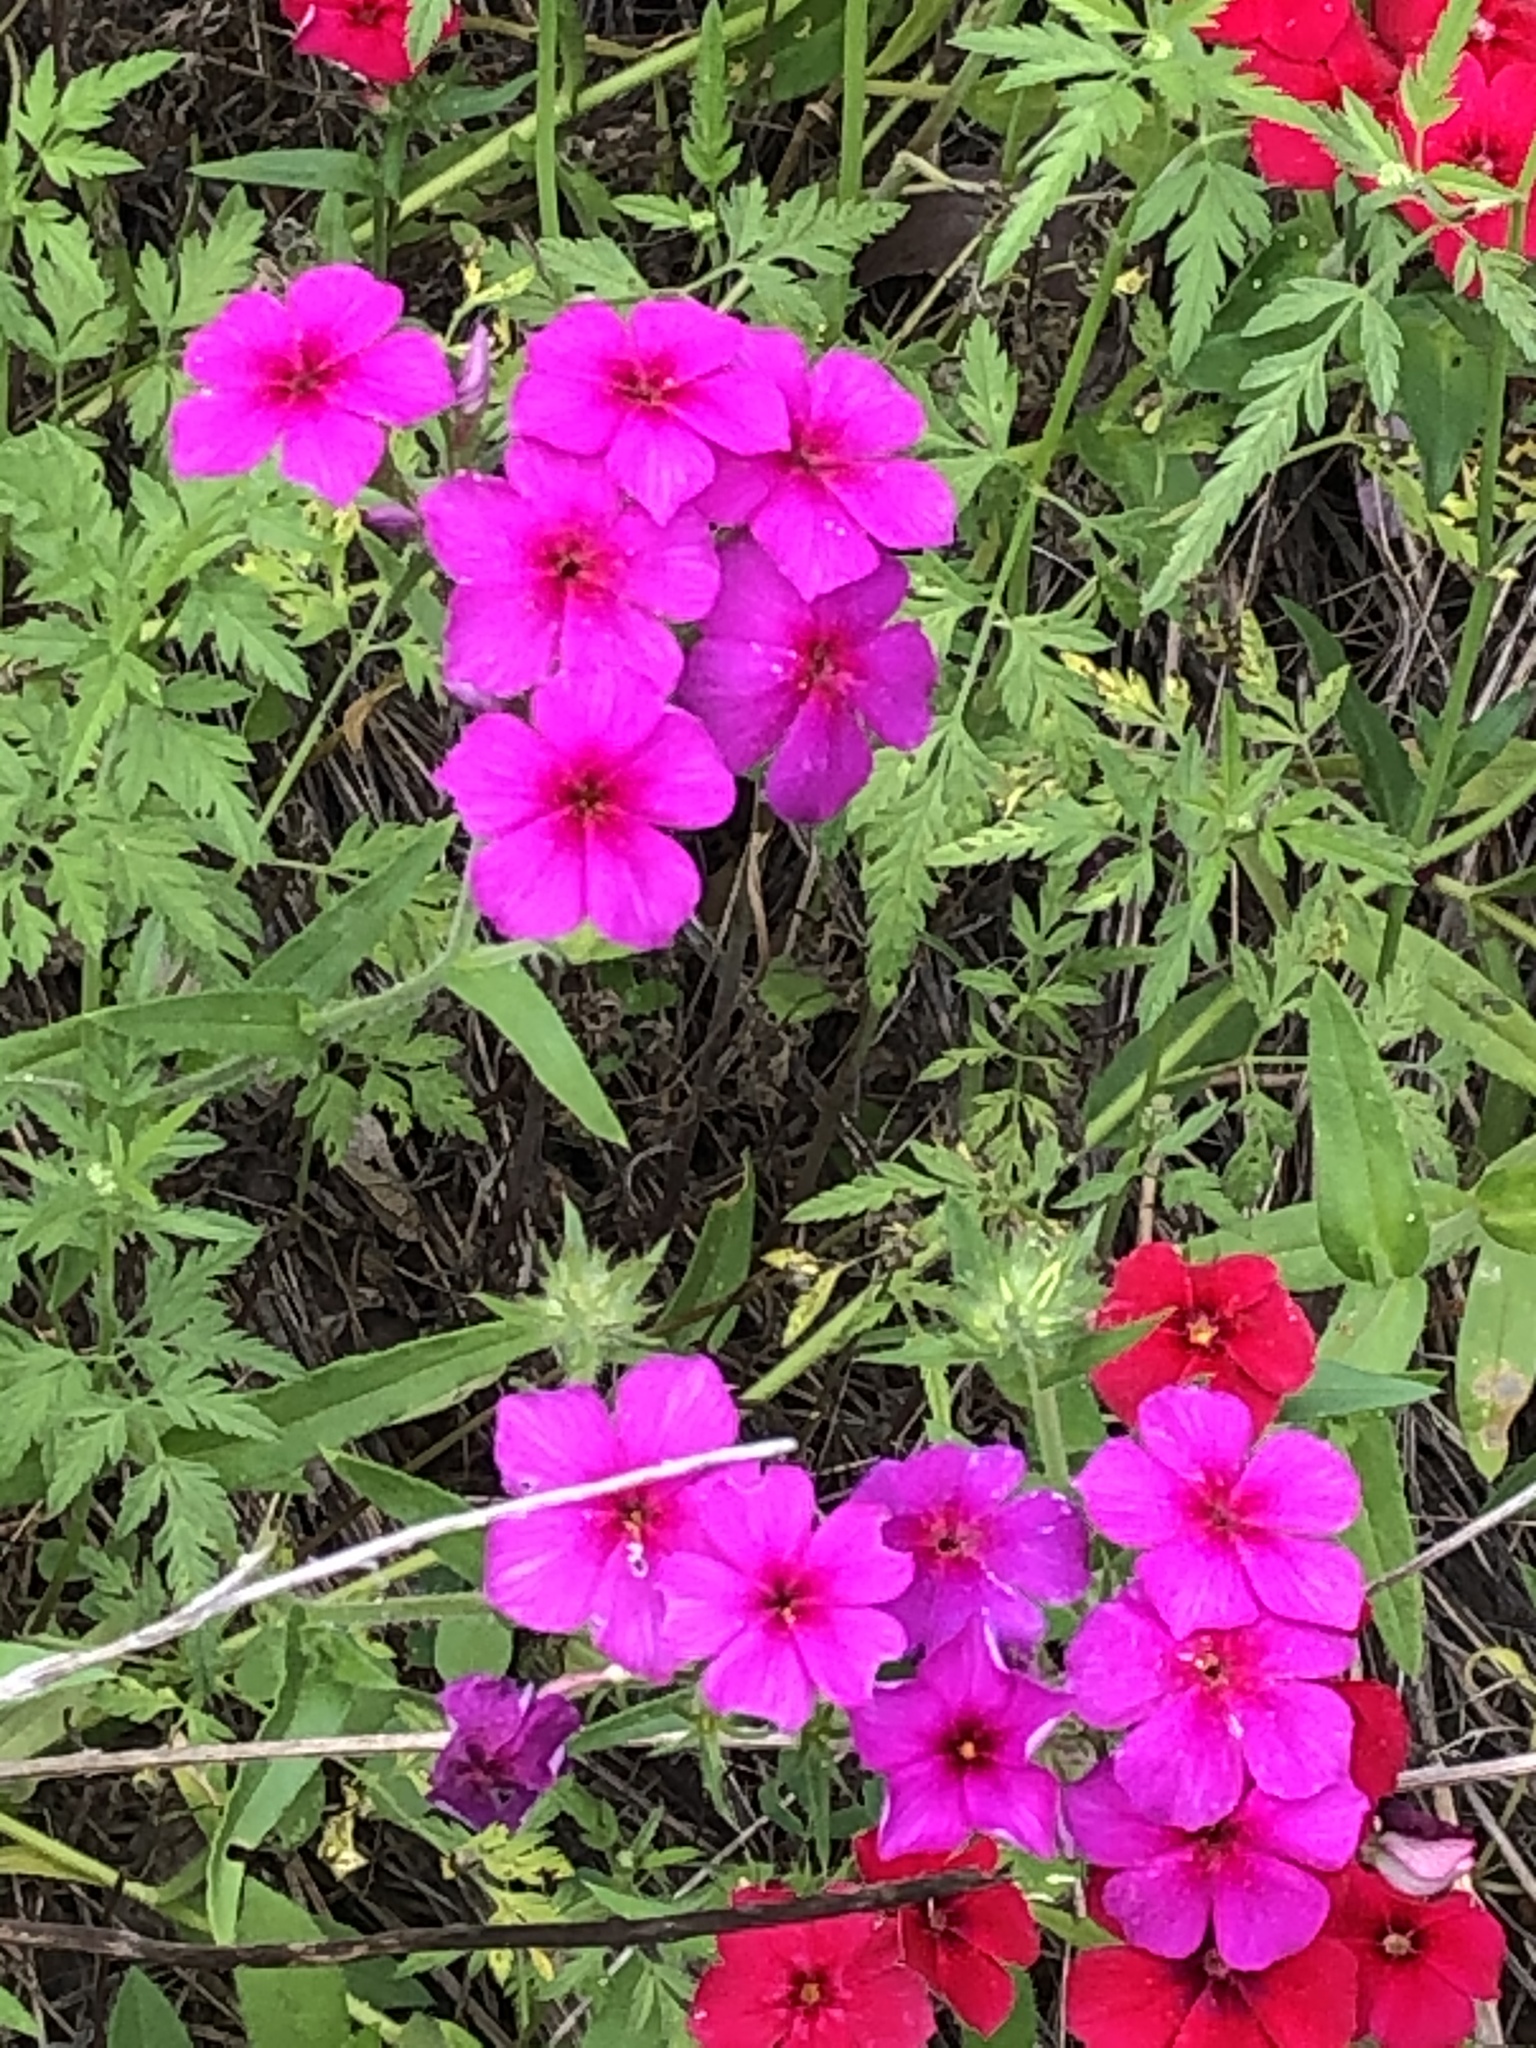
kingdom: Plantae
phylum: Tracheophyta
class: Magnoliopsida
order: Ericales
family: Polemoniaceae
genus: Phlox
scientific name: Phlox drummondii
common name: Drummond's phlox
